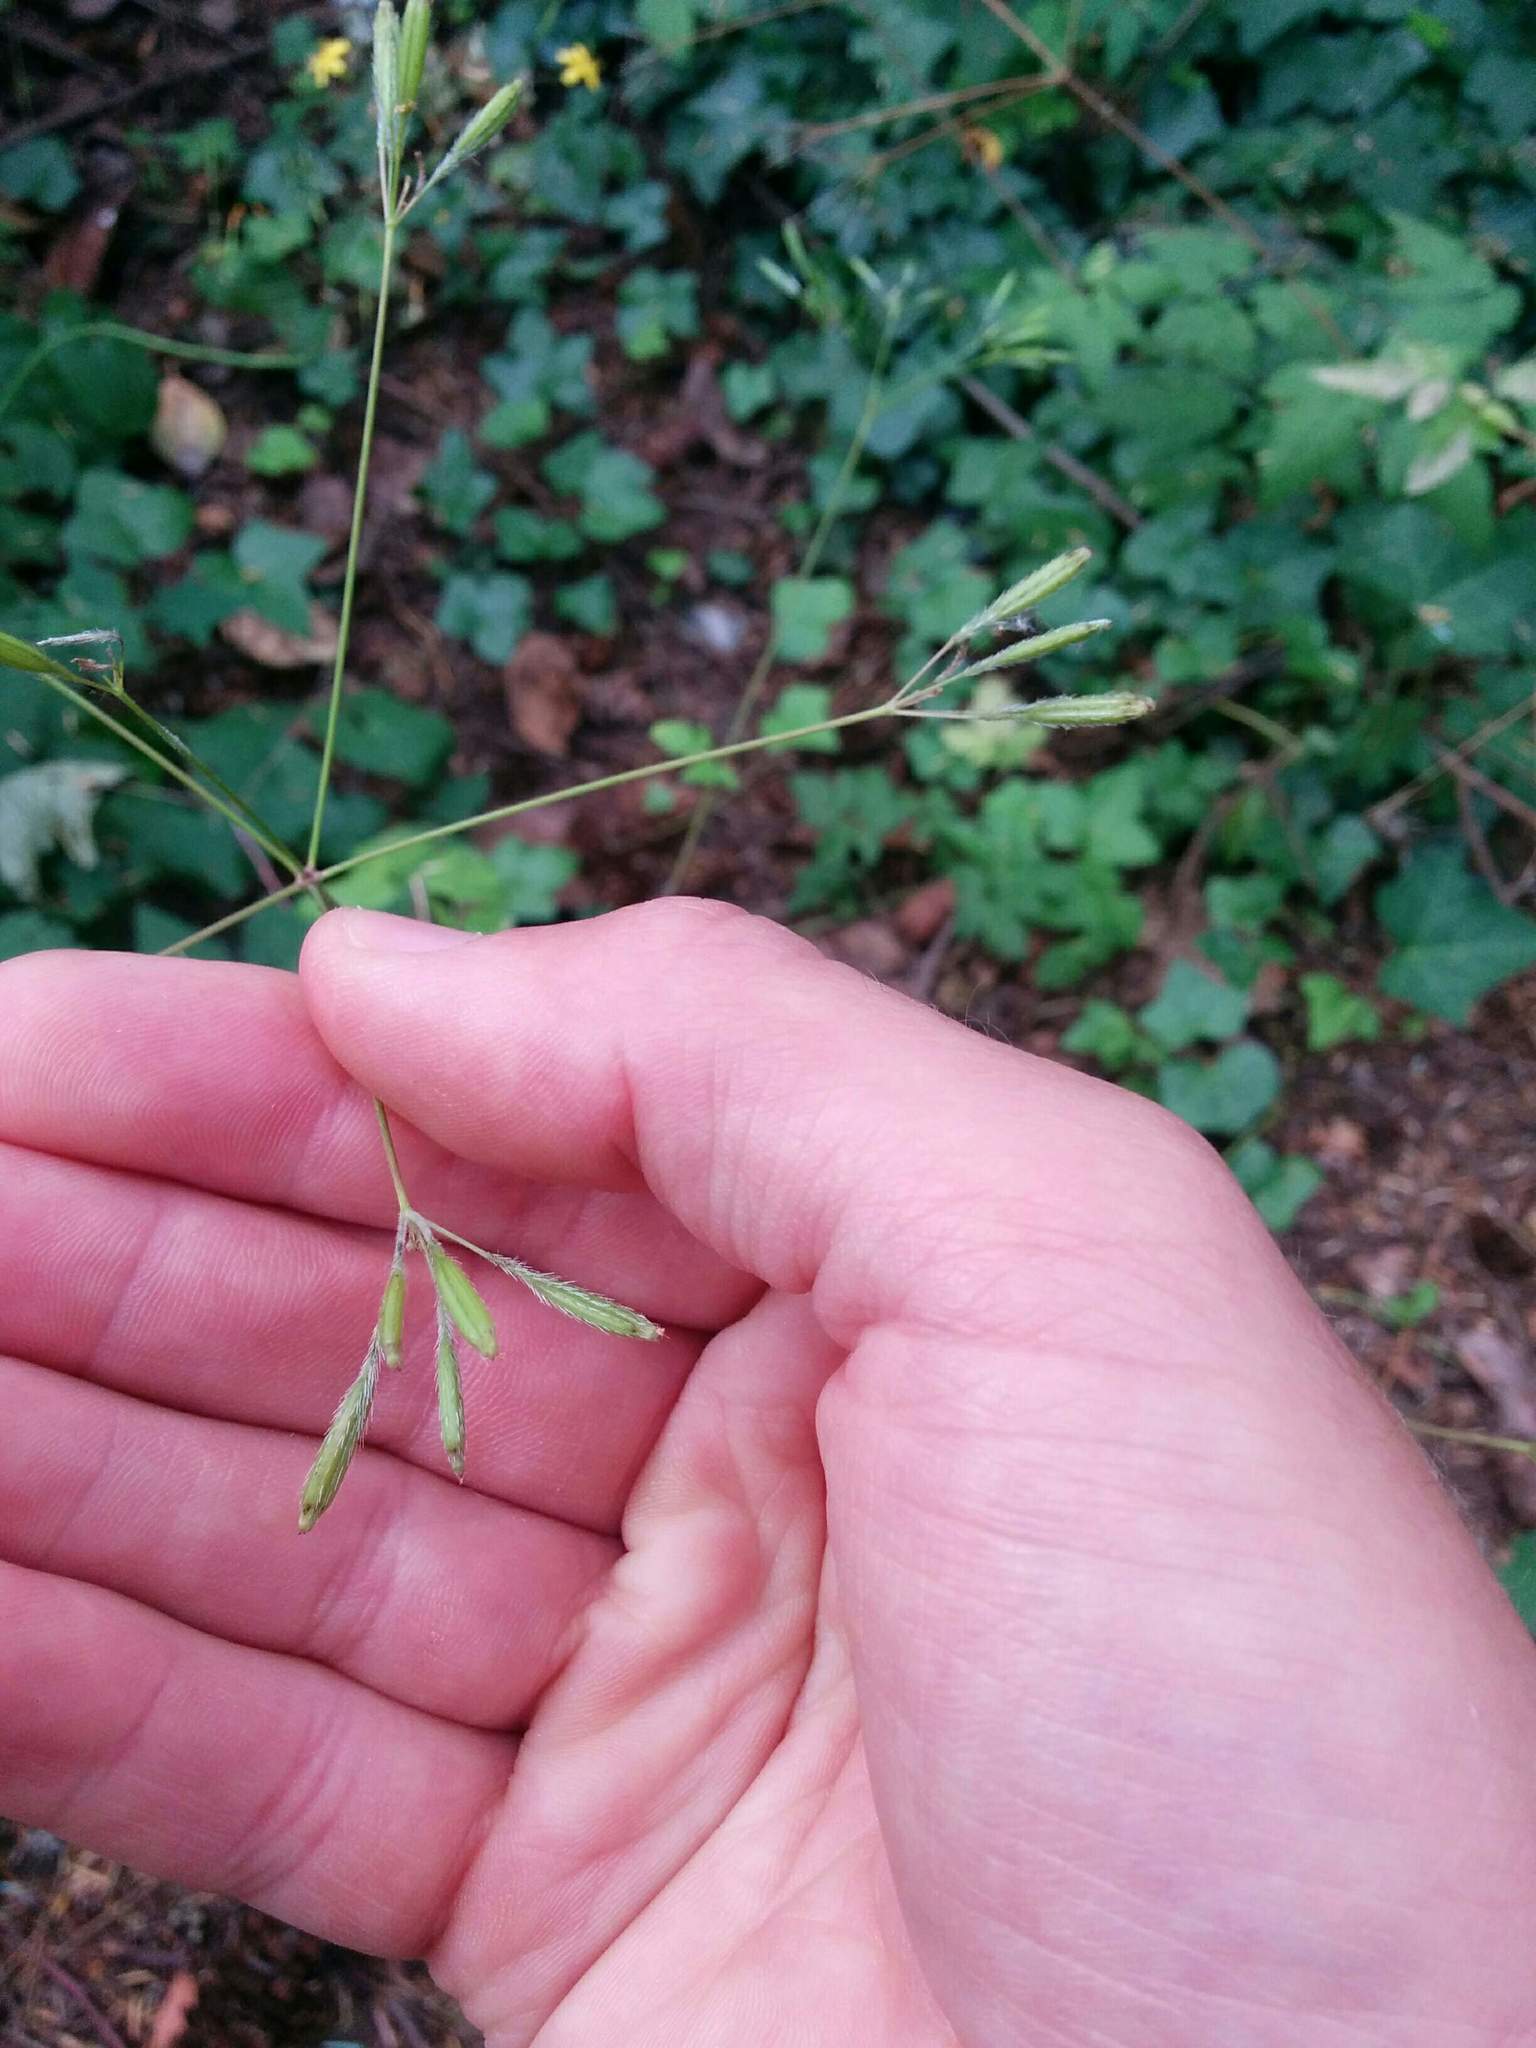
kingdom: Plantae
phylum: Tracheophyta
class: Magnoliopsida
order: Apiales
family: Apiaceae
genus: Osmorhiza
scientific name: Osmorhiza berteroi
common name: Mountain sweet cicely
